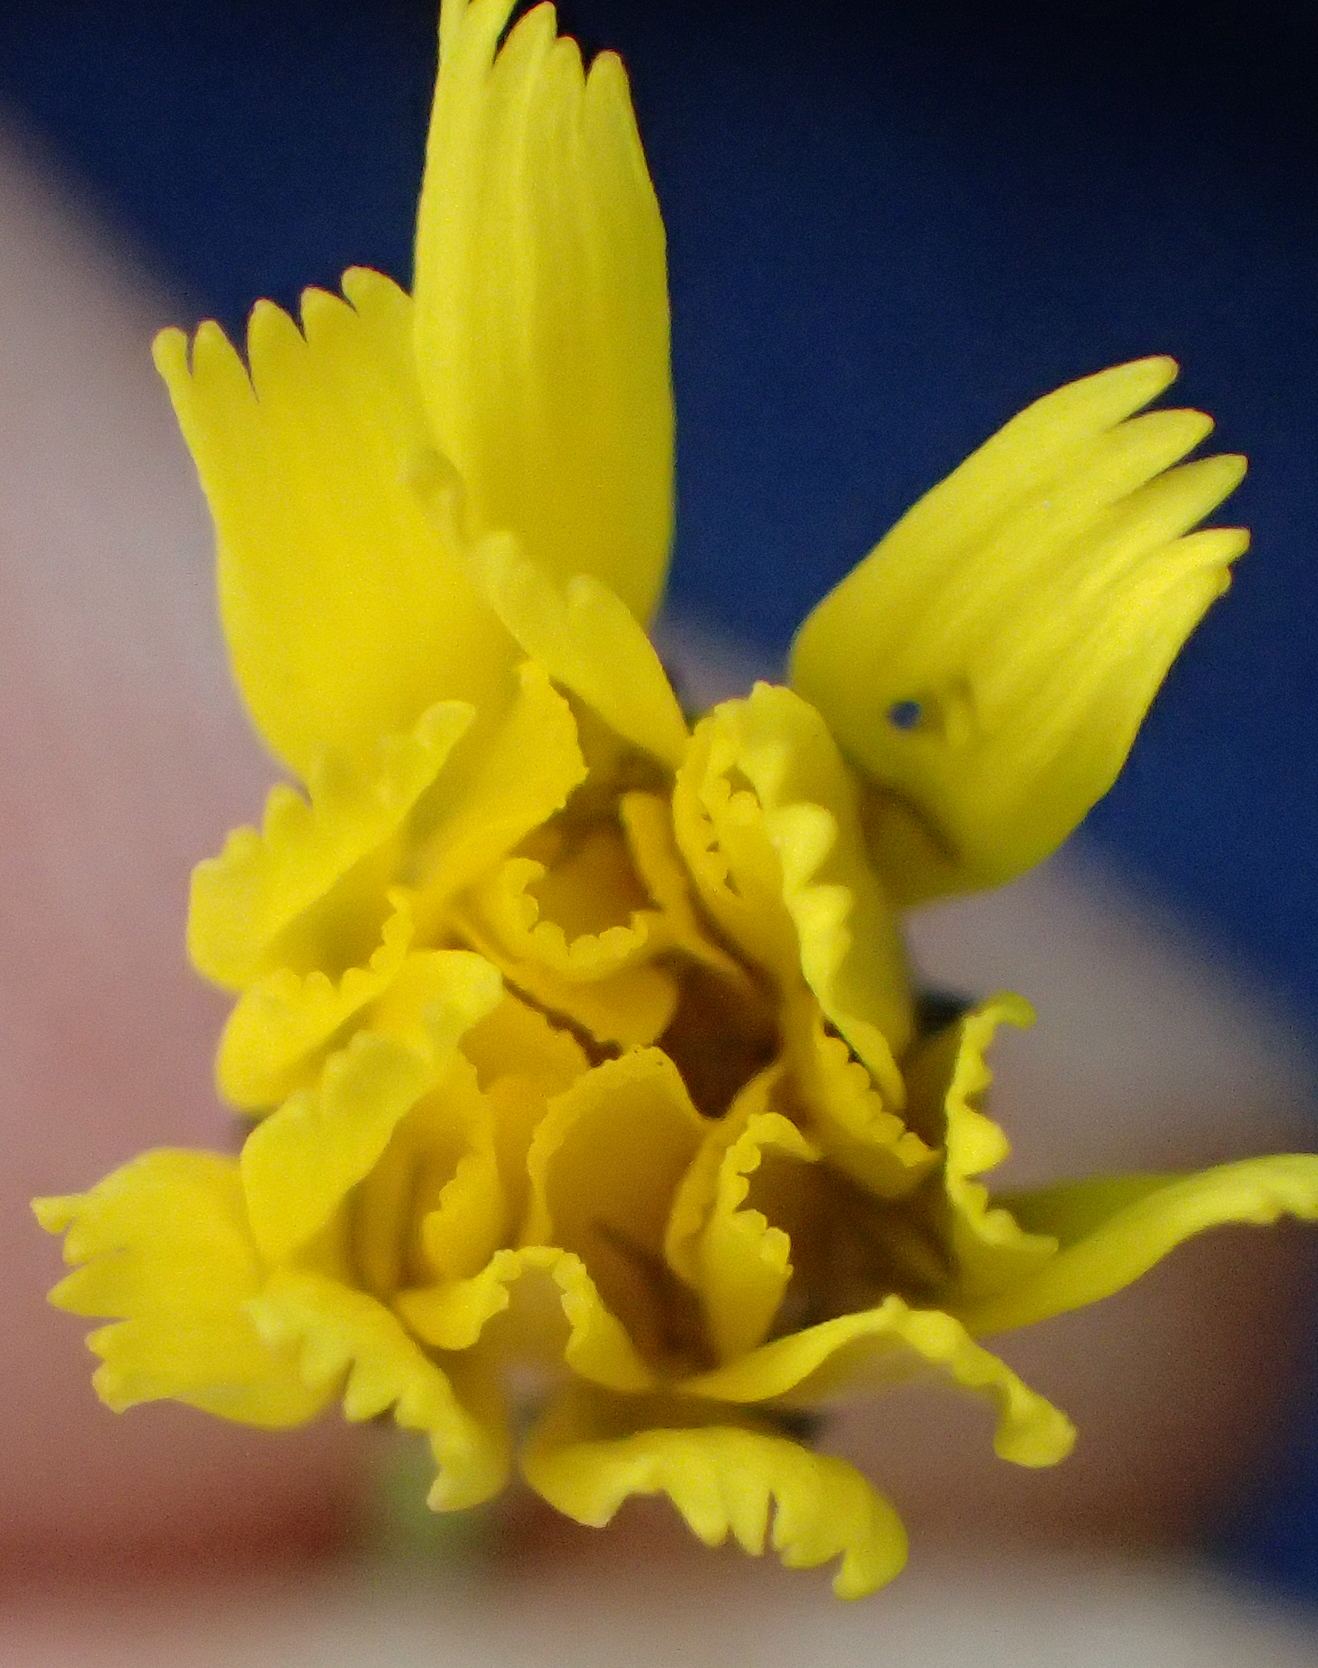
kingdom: Plantae
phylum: Tracheophyta
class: Magnoliopsida
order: Asterales
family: Asteraceae
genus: Crepis
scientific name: Crepis tectorum
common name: Narrow-leaved hawk's-beard
